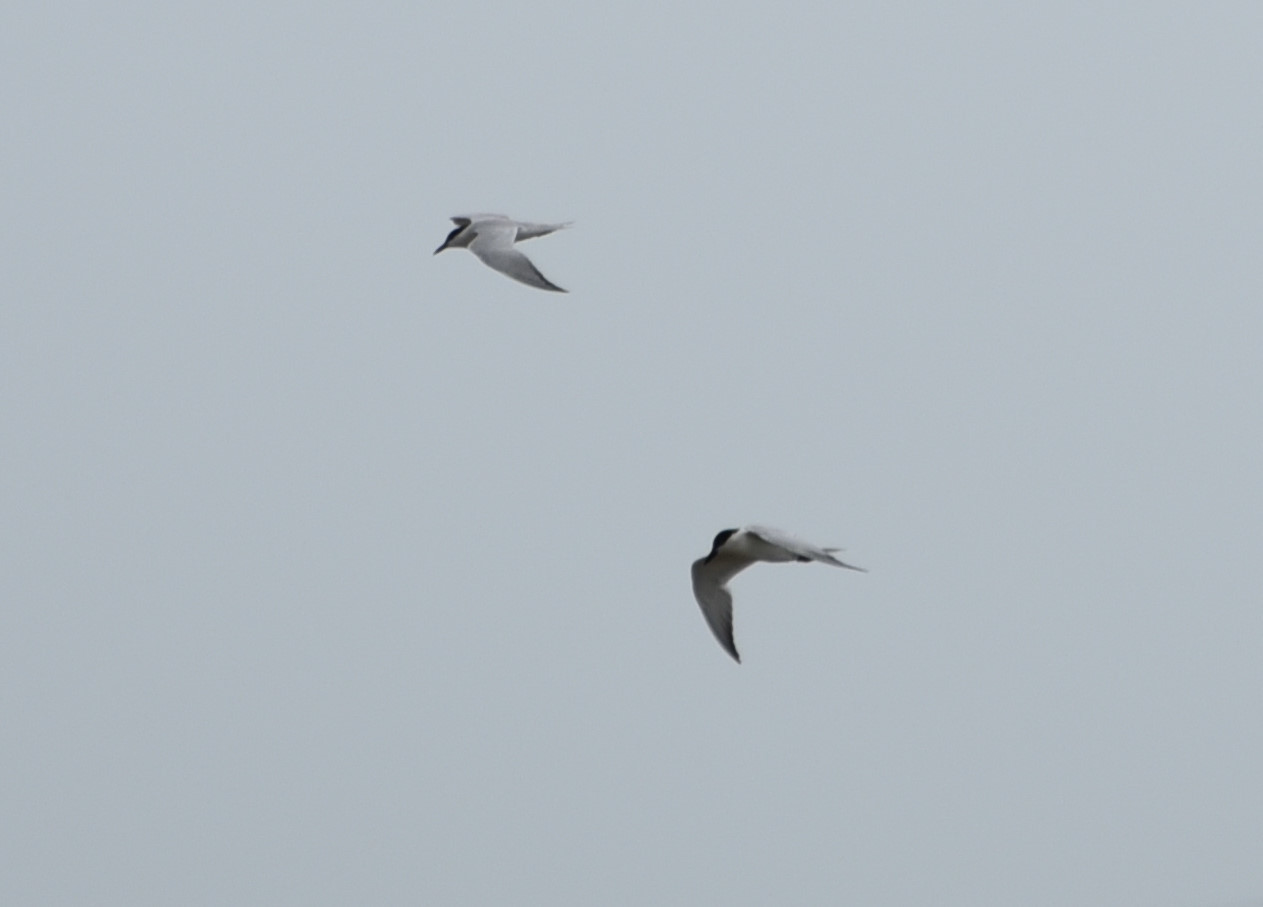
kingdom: Animalia
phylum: Chordata
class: Aves
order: Charadriiformes
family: Laridae
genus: Gelochelidon
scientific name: Gelochelidon nilotica
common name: Gull-billed tern
